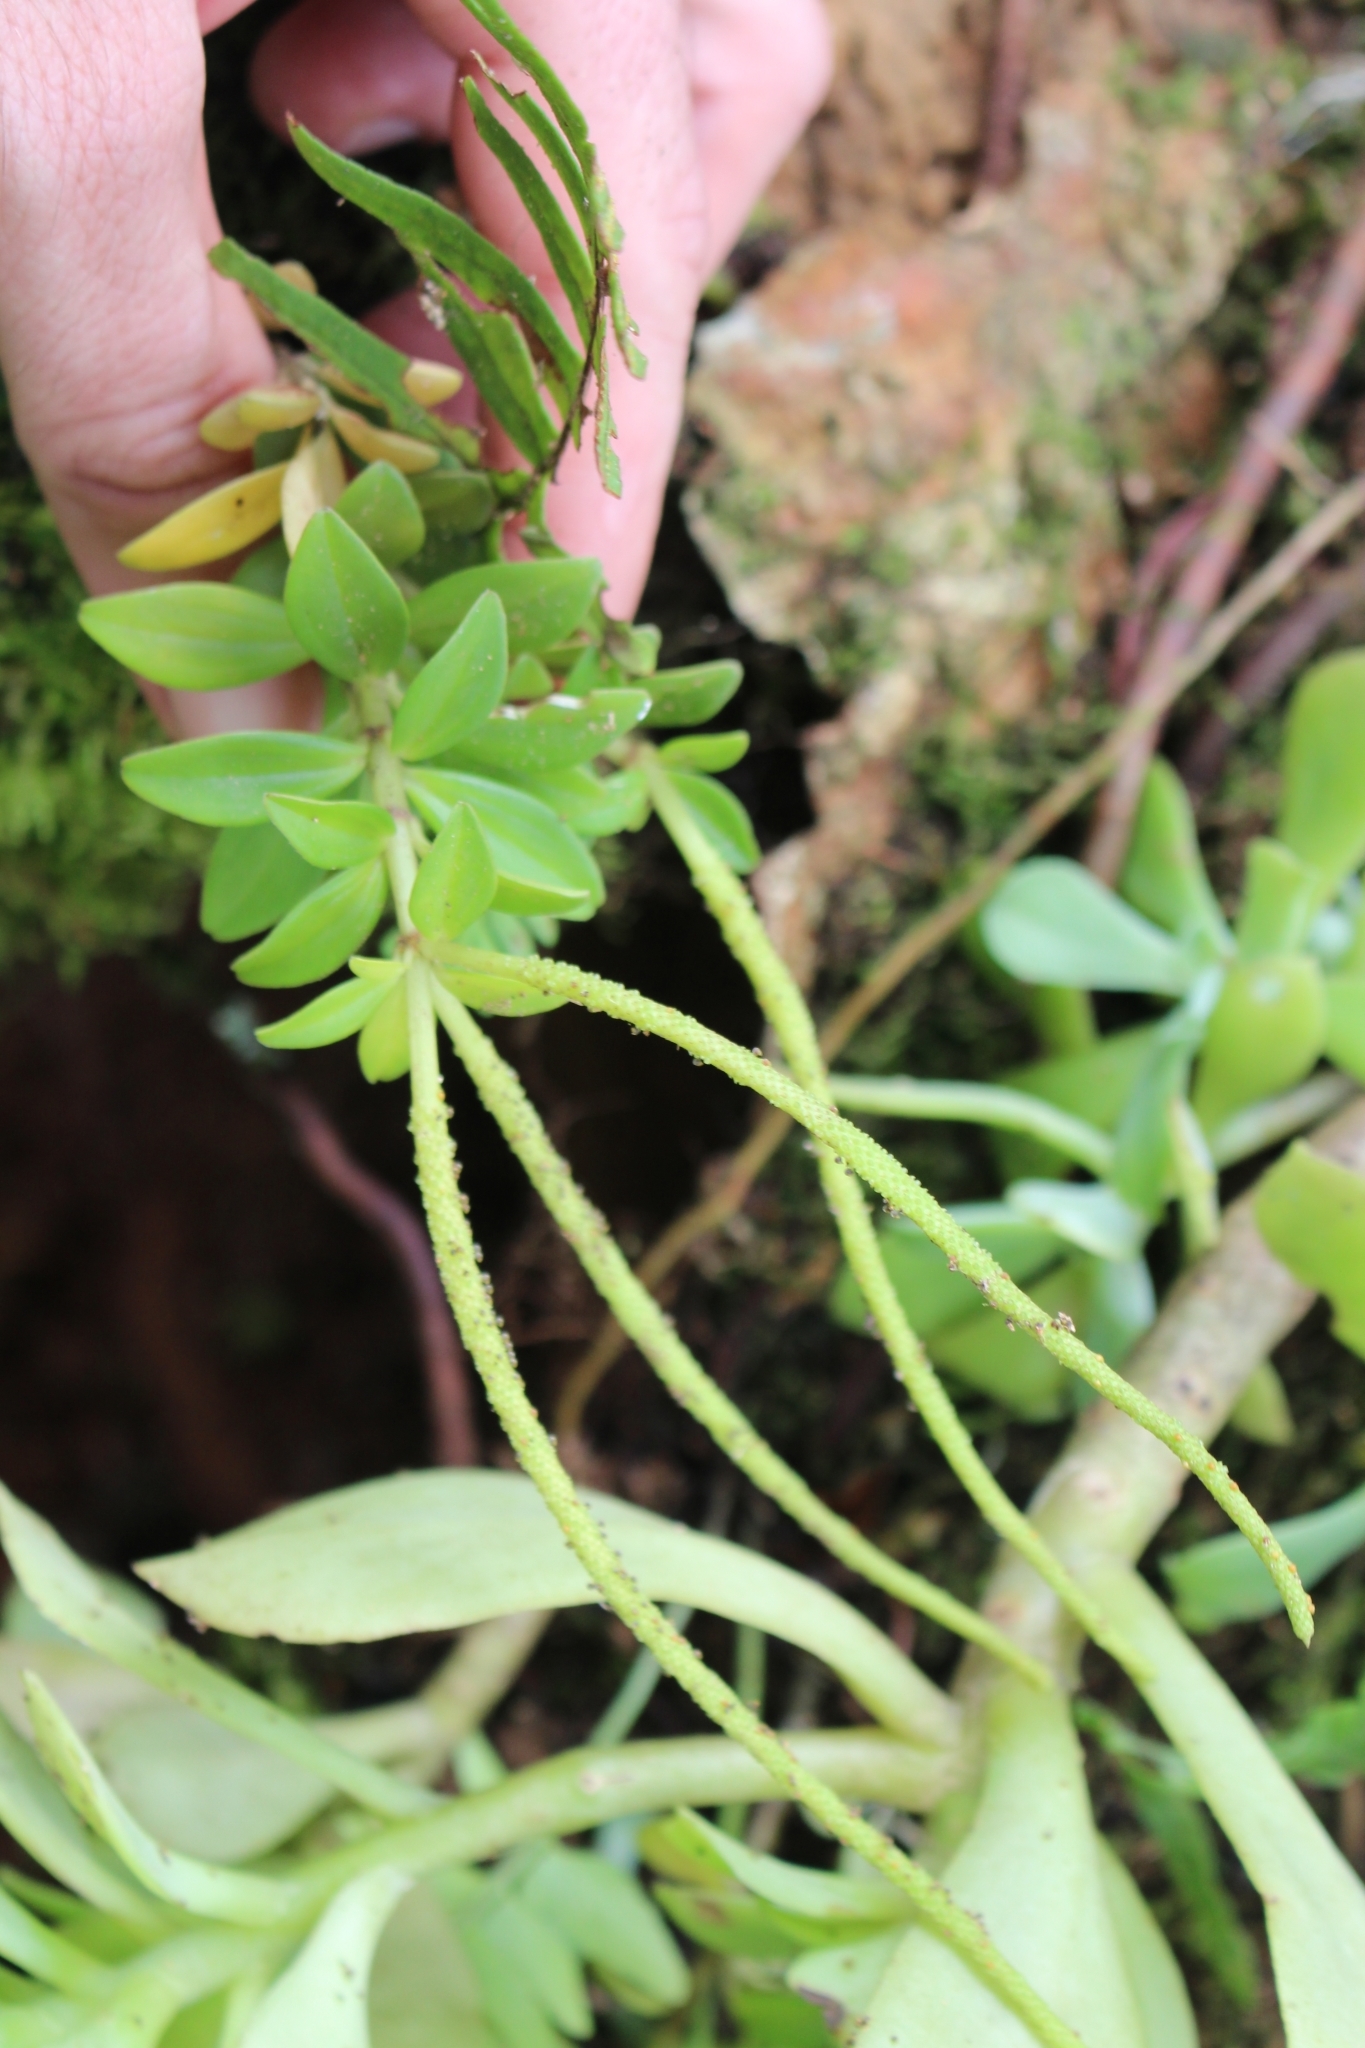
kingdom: Plantae
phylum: Tracheophyta
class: Magnoliopsida
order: Piperales
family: Piperaceae
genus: Peperomia
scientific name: Peperomia olivacea
